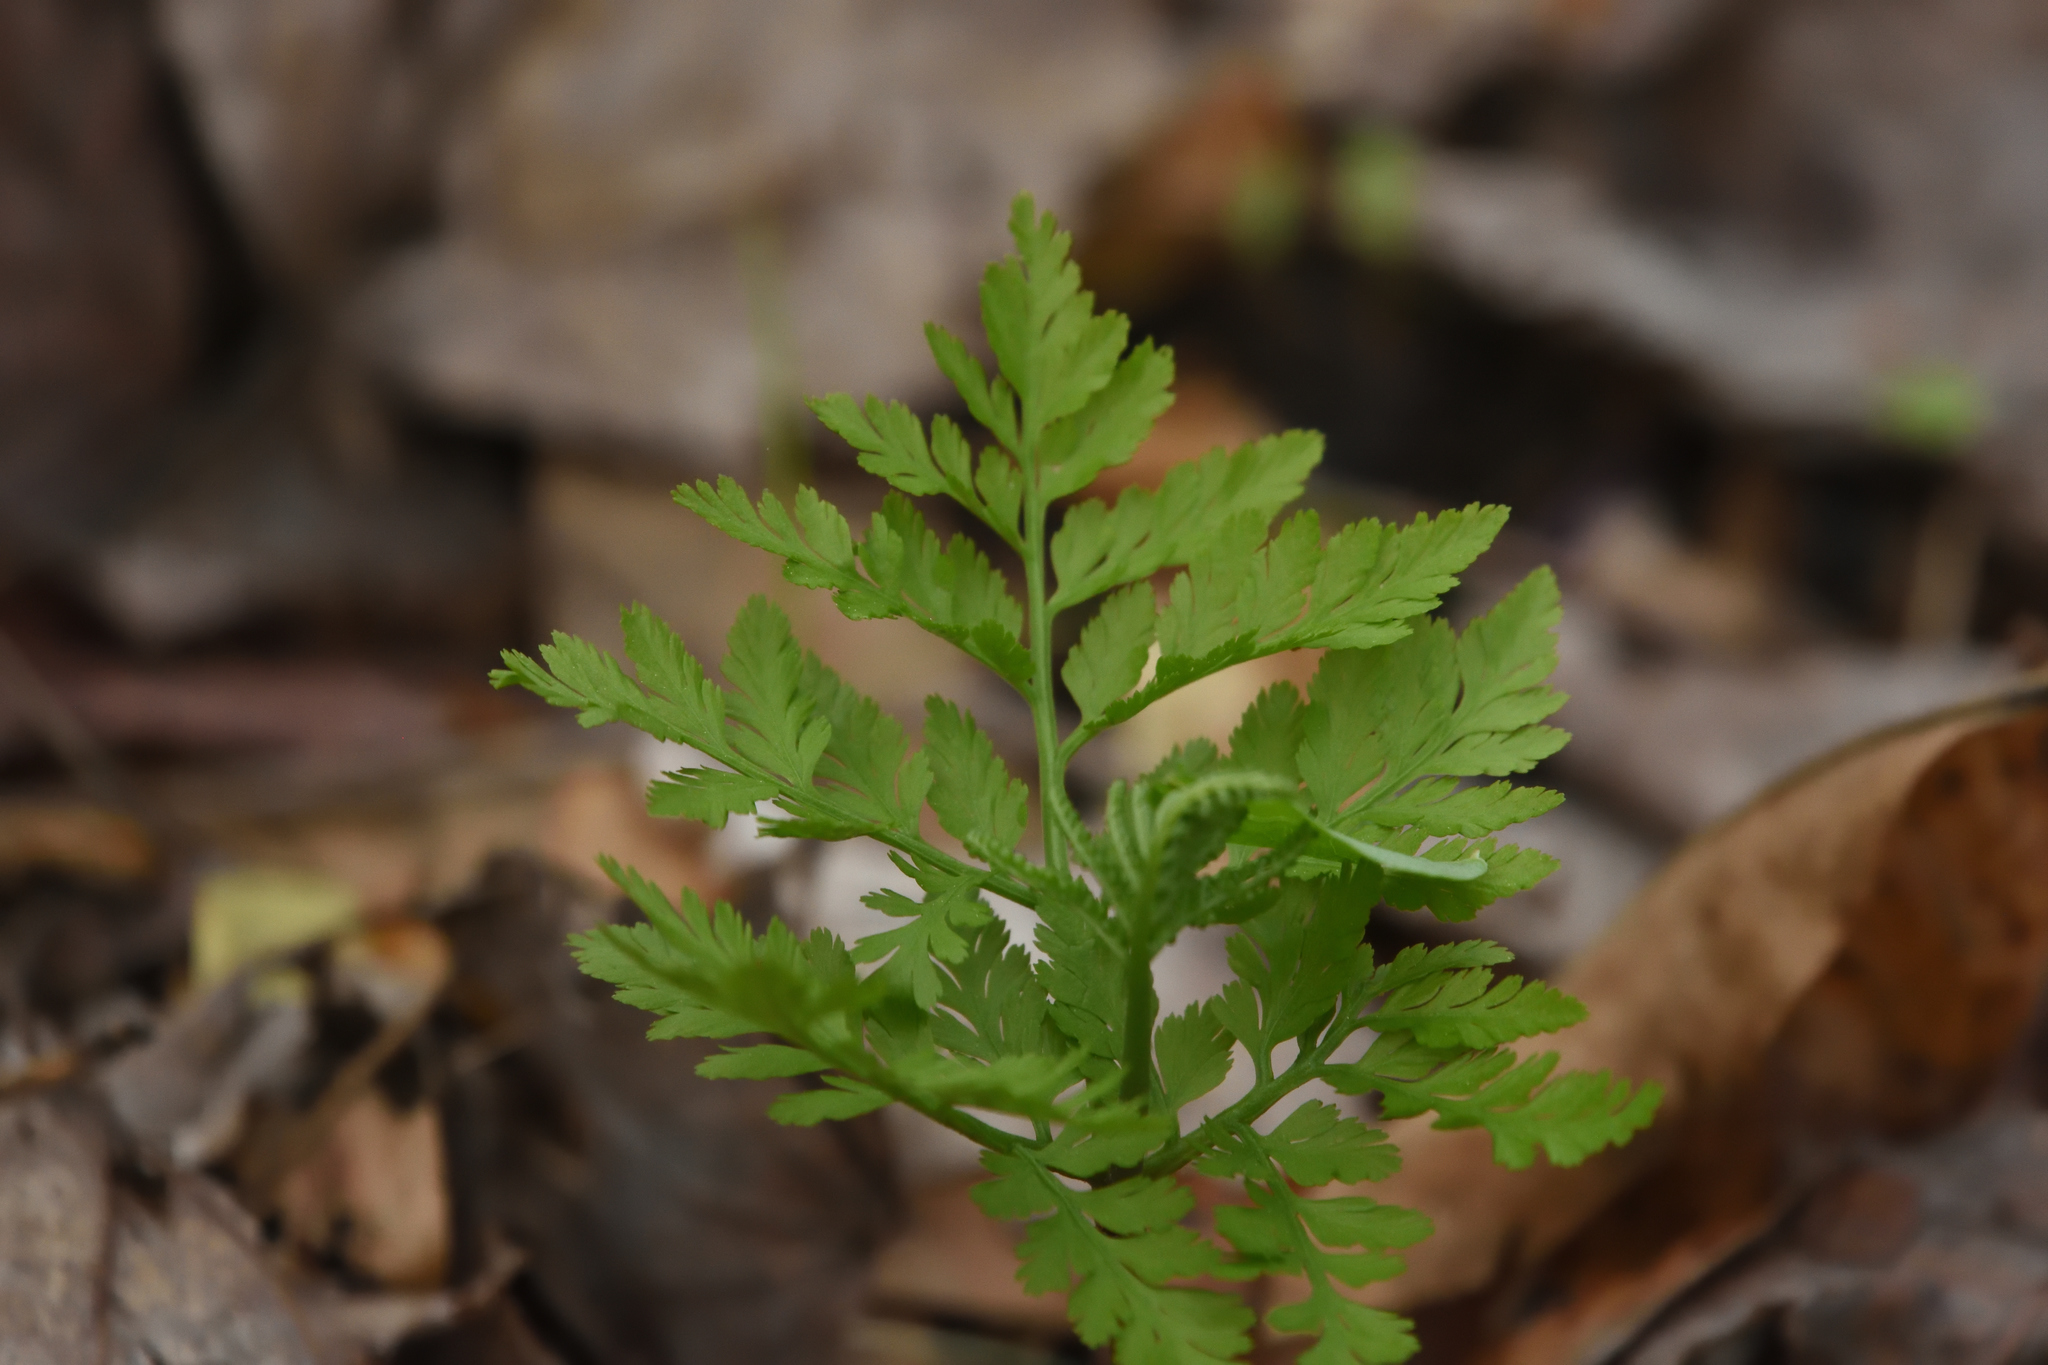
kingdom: Plantae
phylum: Tracheophyta
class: Polypodiopsida
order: Ophioglossales
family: Ophioglossaceae
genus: Botrypus
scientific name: Botrypus virginianus
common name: Common grapefern
